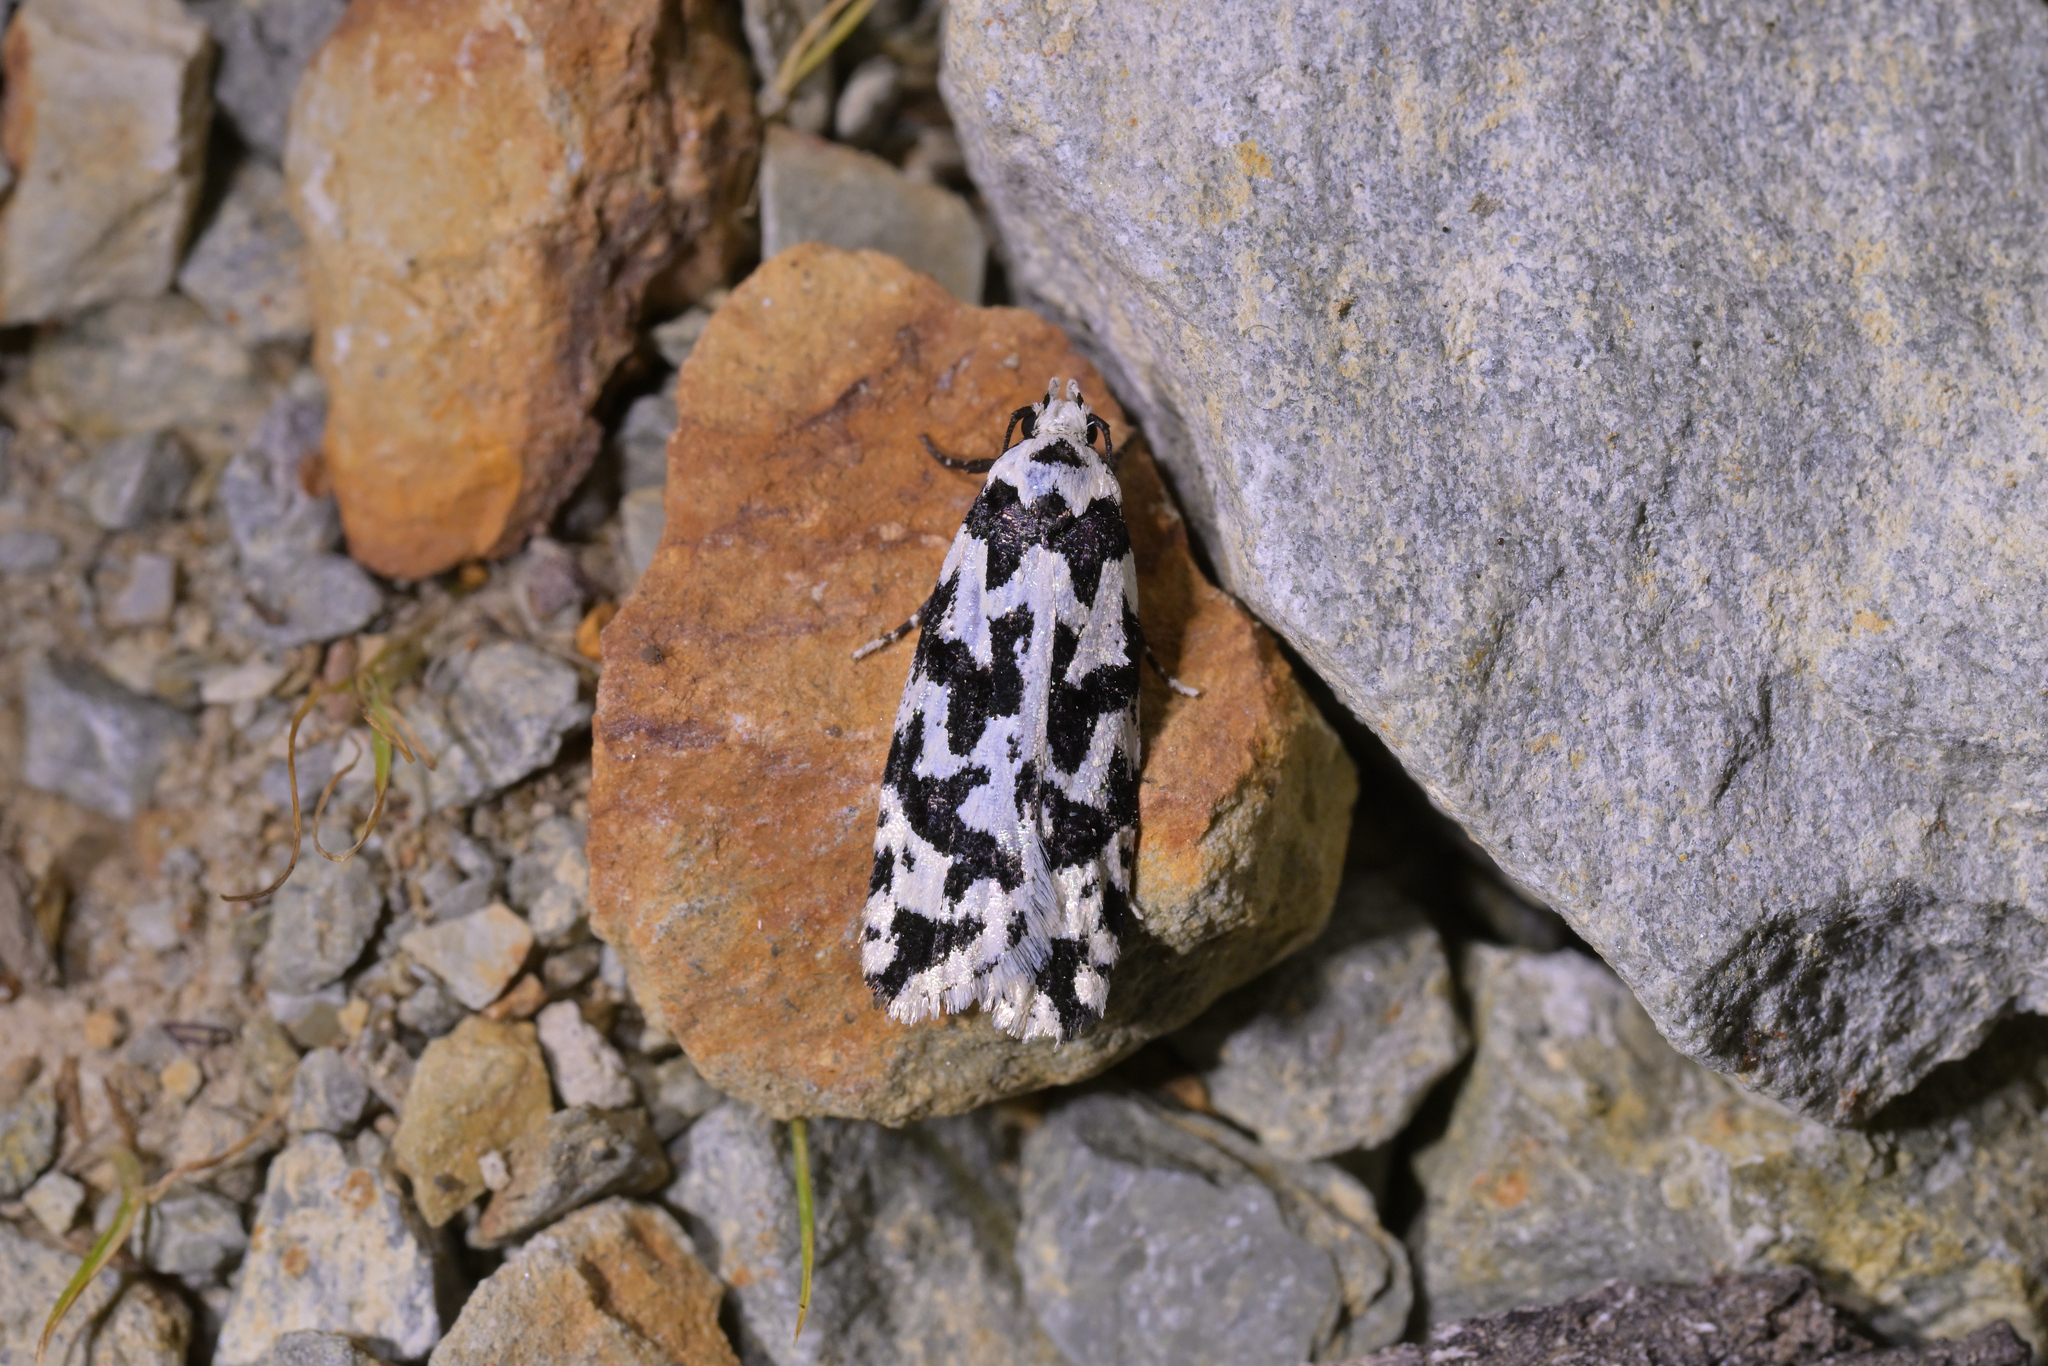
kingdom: Animalia
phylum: Arthropoda
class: Insecta
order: Lepidoptera
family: Oecophoridae
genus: Izatha
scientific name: Izatha acmonias
